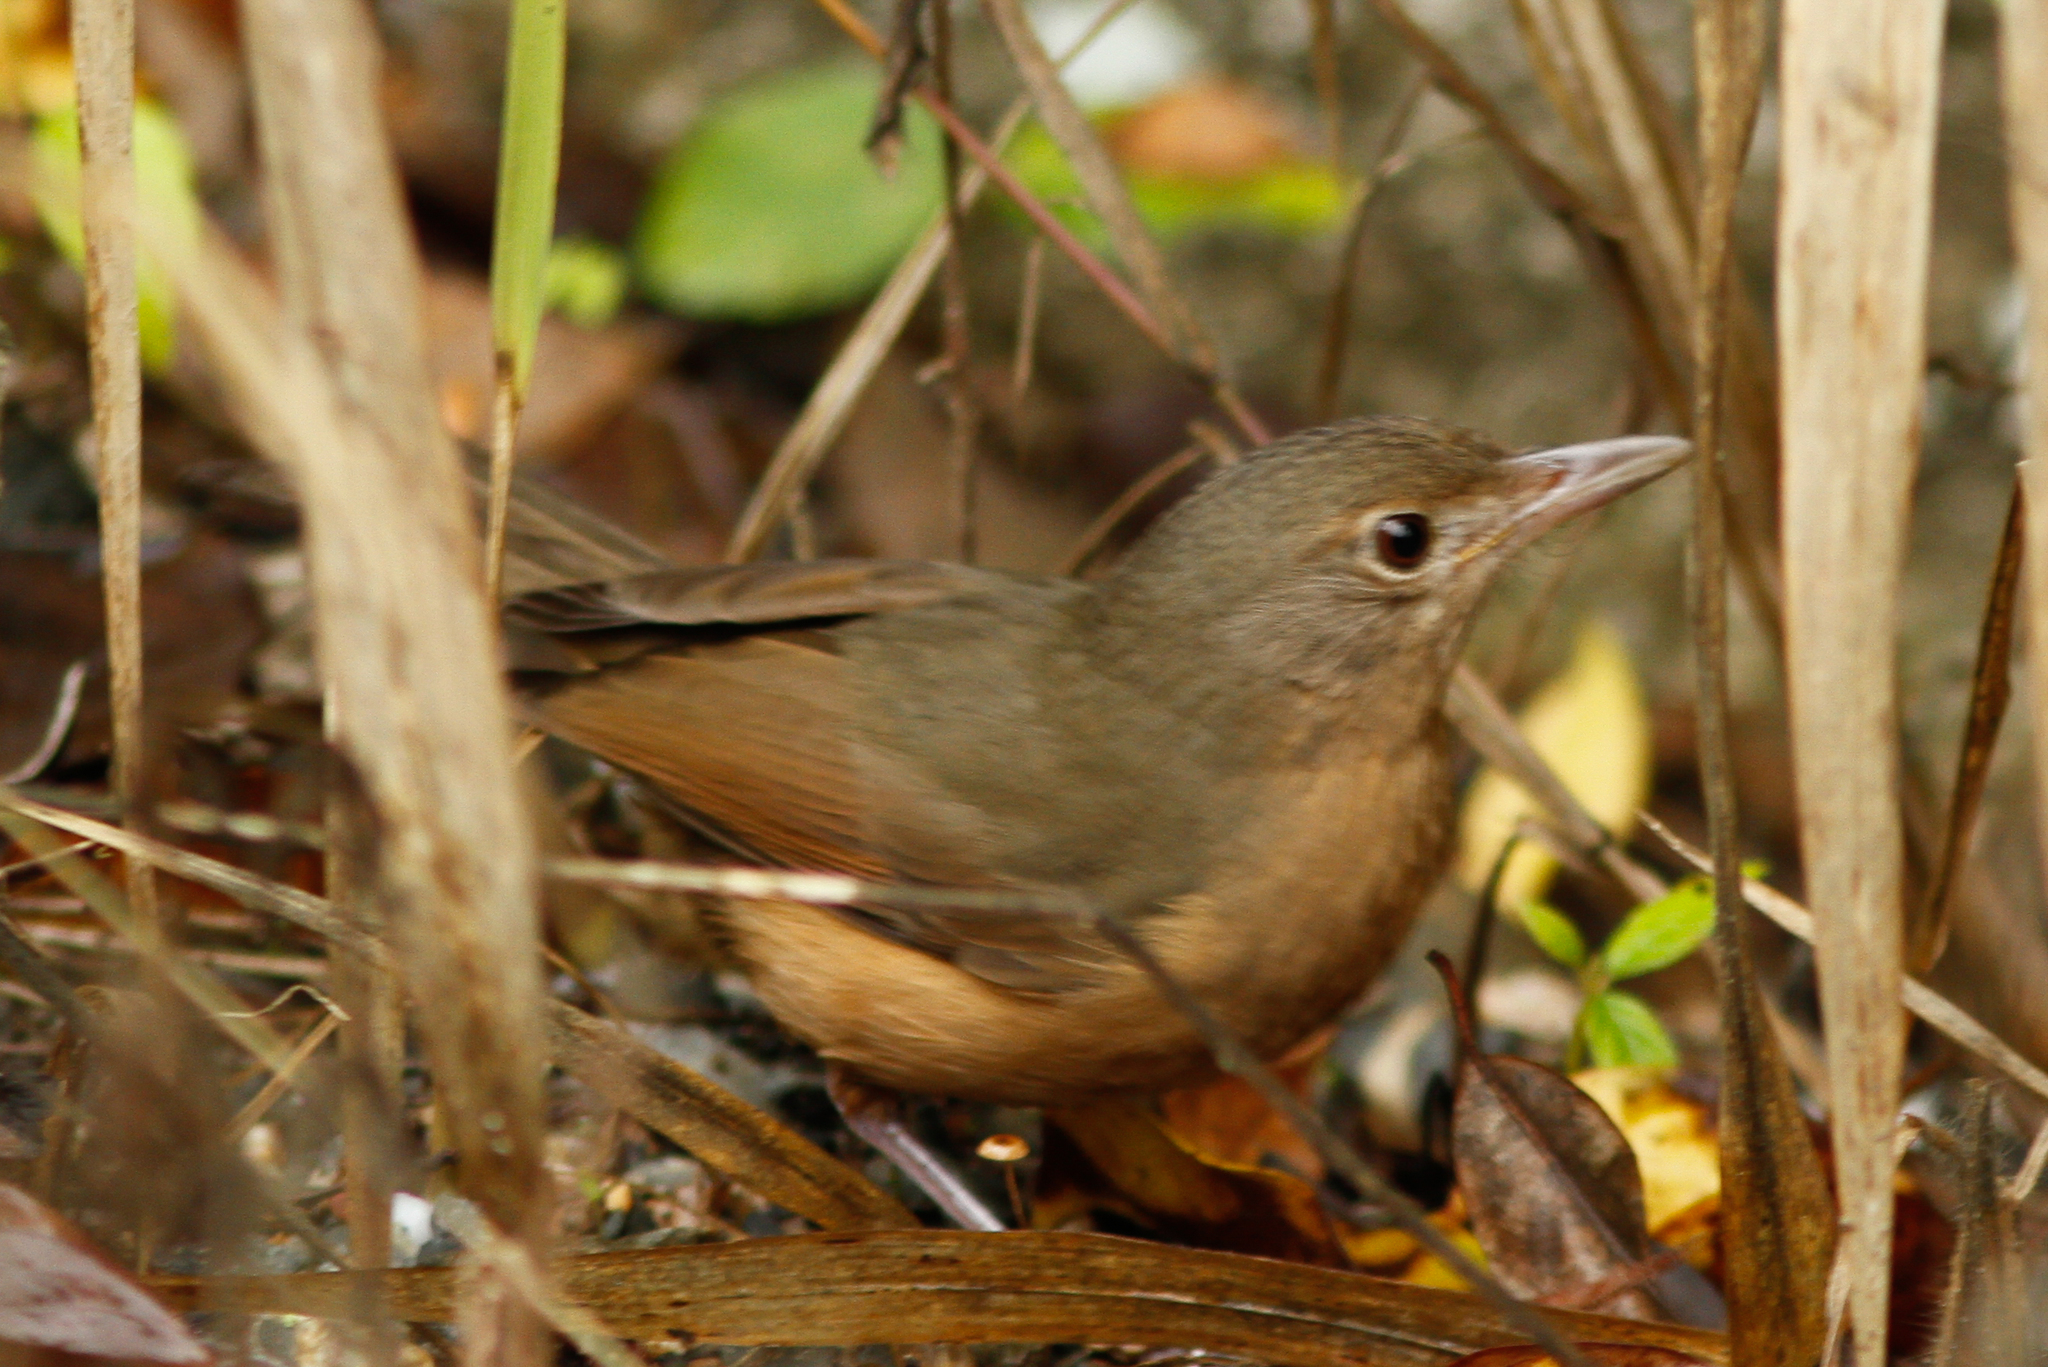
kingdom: Animalia
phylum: Chordata
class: Aves
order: Passeriformes
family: Pachycephalidae
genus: Colluricincla
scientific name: Colluricincla rufogaster
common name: Rufous shrikethrush
